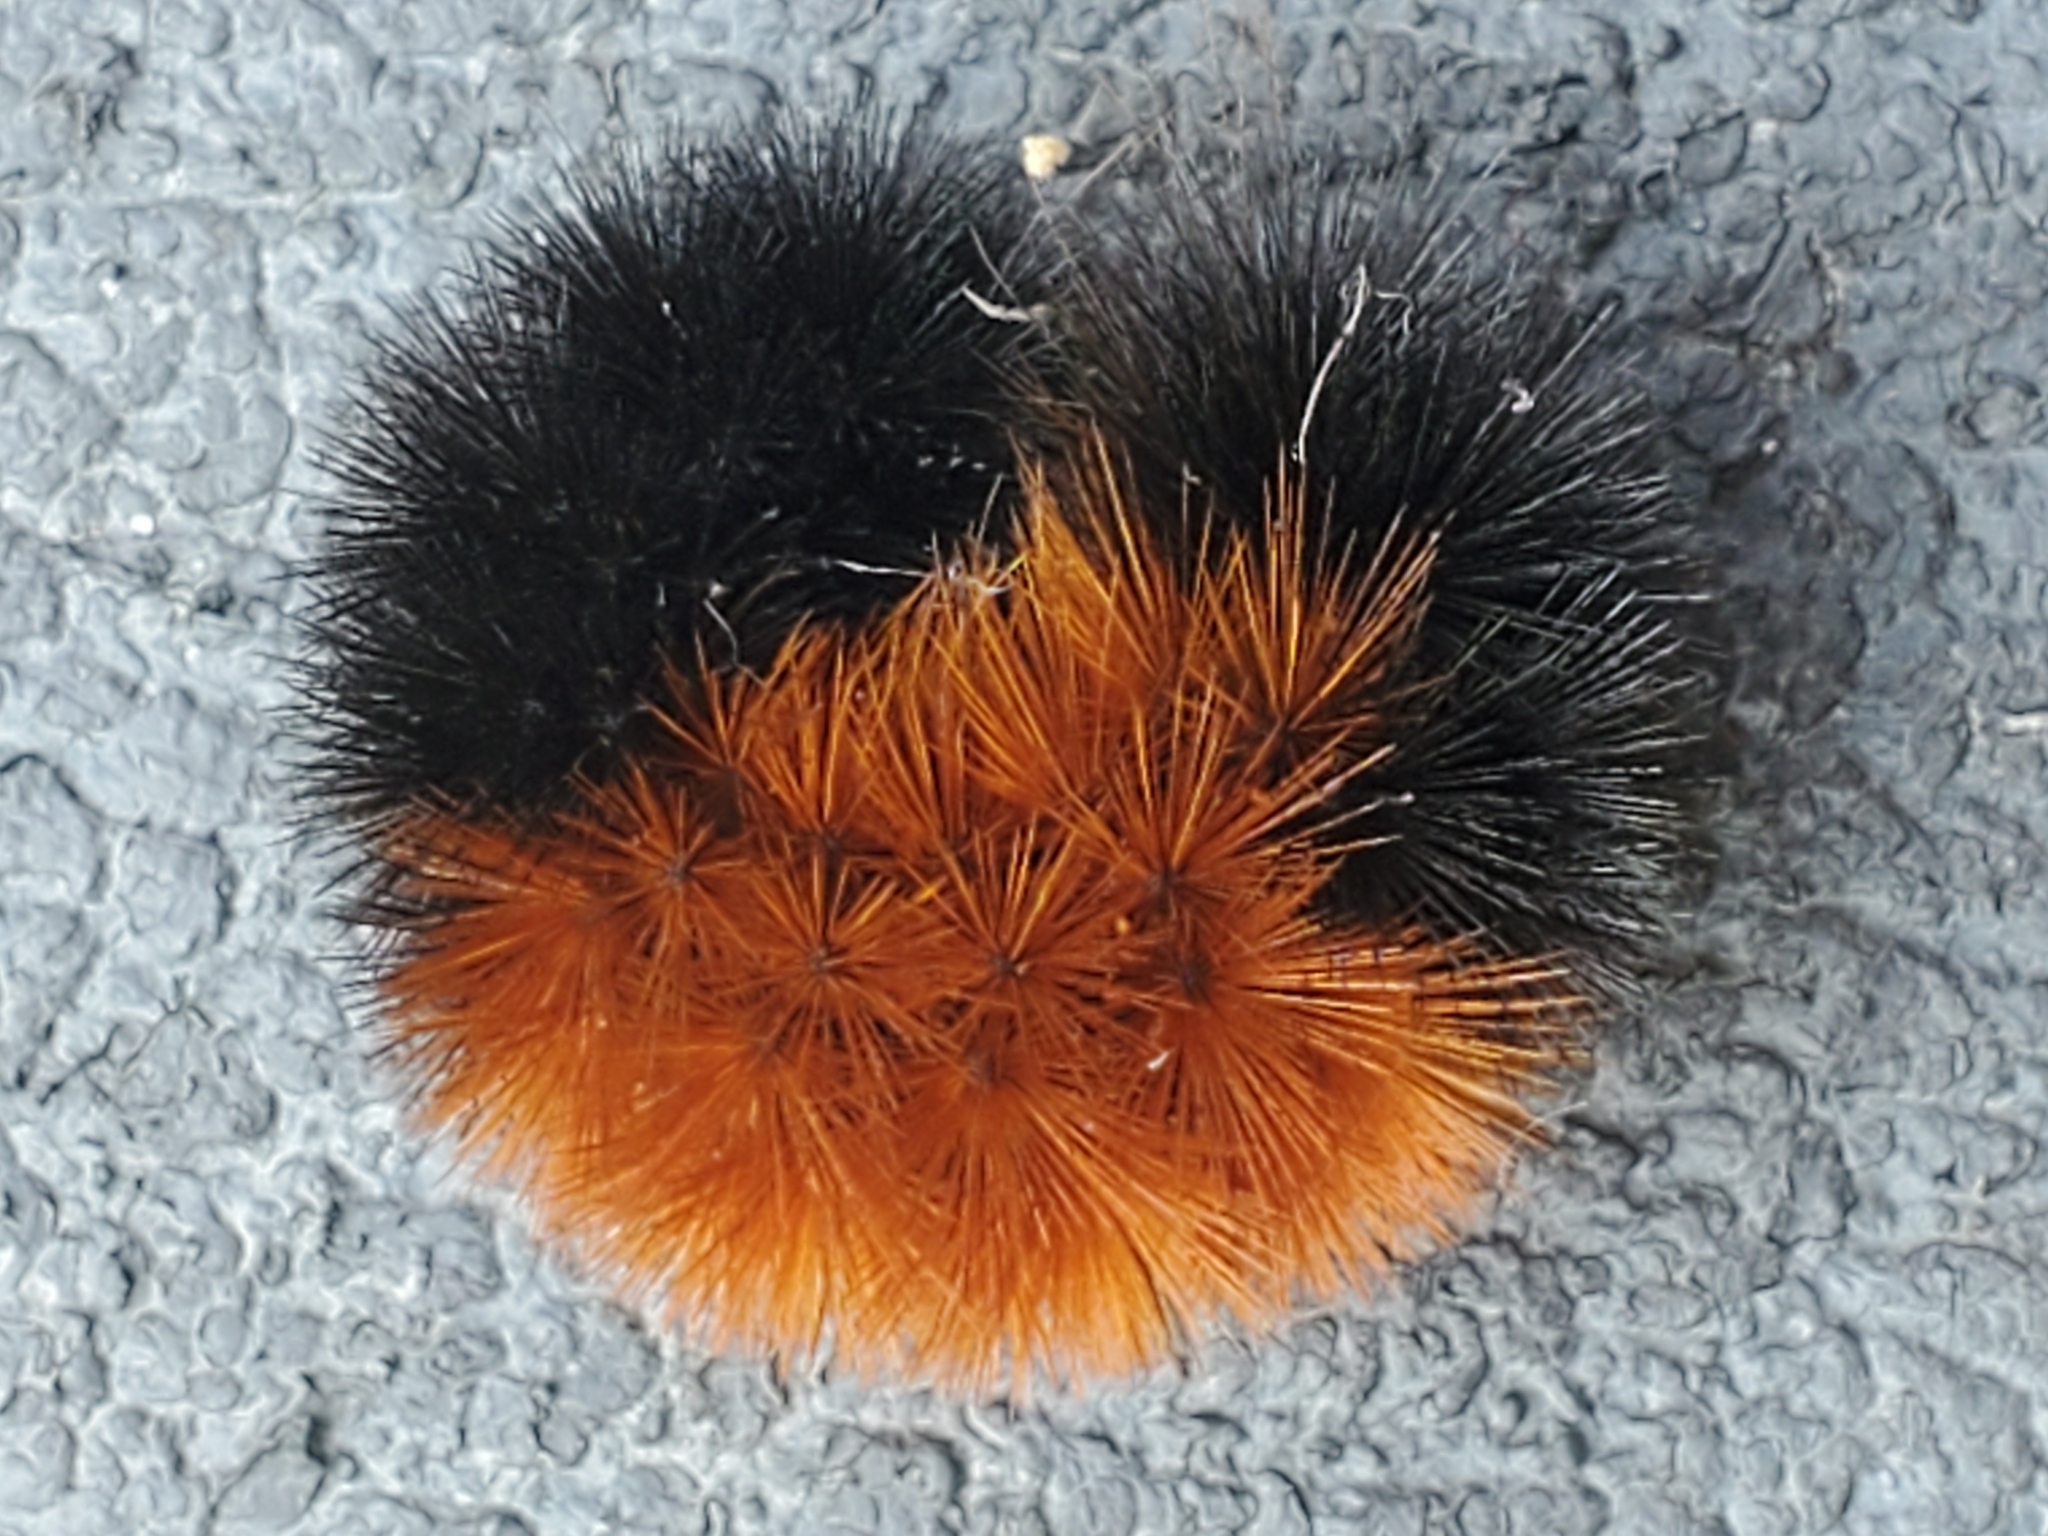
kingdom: Animalia
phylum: Arthropoda
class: Insecta
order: Lepidoptera
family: Erebidae
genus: Pyrrharctia
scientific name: Pyrrharctia isabella
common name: Isabella tiger moth
